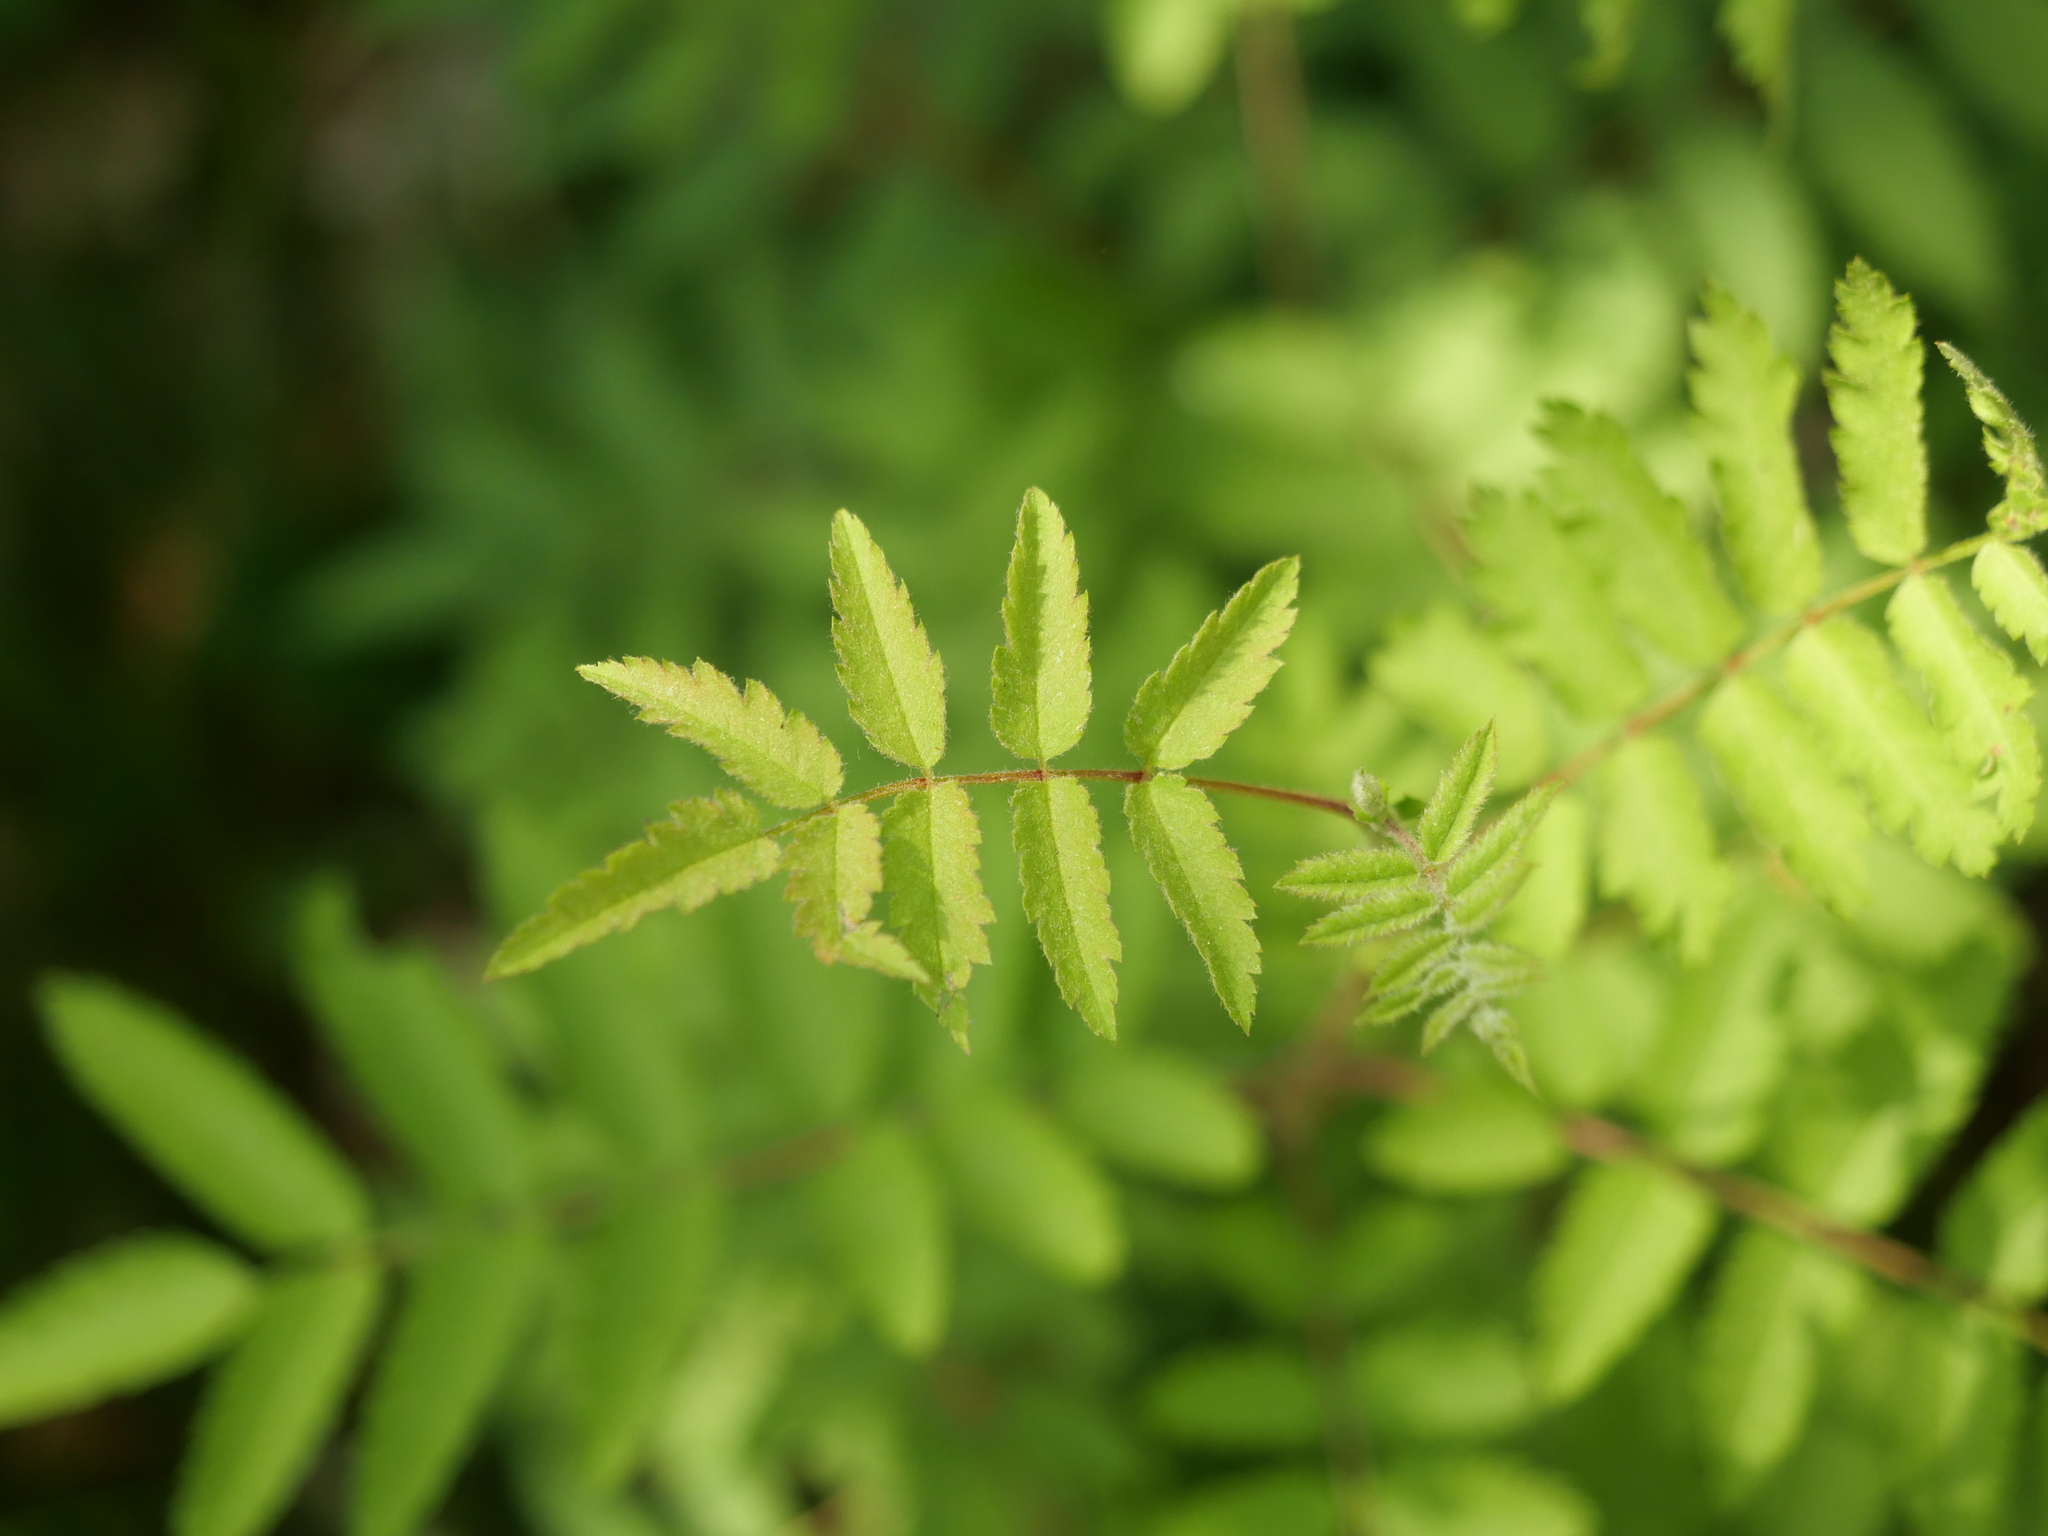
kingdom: Plantae
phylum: Tracheophyta
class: Magnoliopsida
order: Rosales
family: Rosaceae
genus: Sorbus
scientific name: Sorbus aucuparia
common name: Rowan
